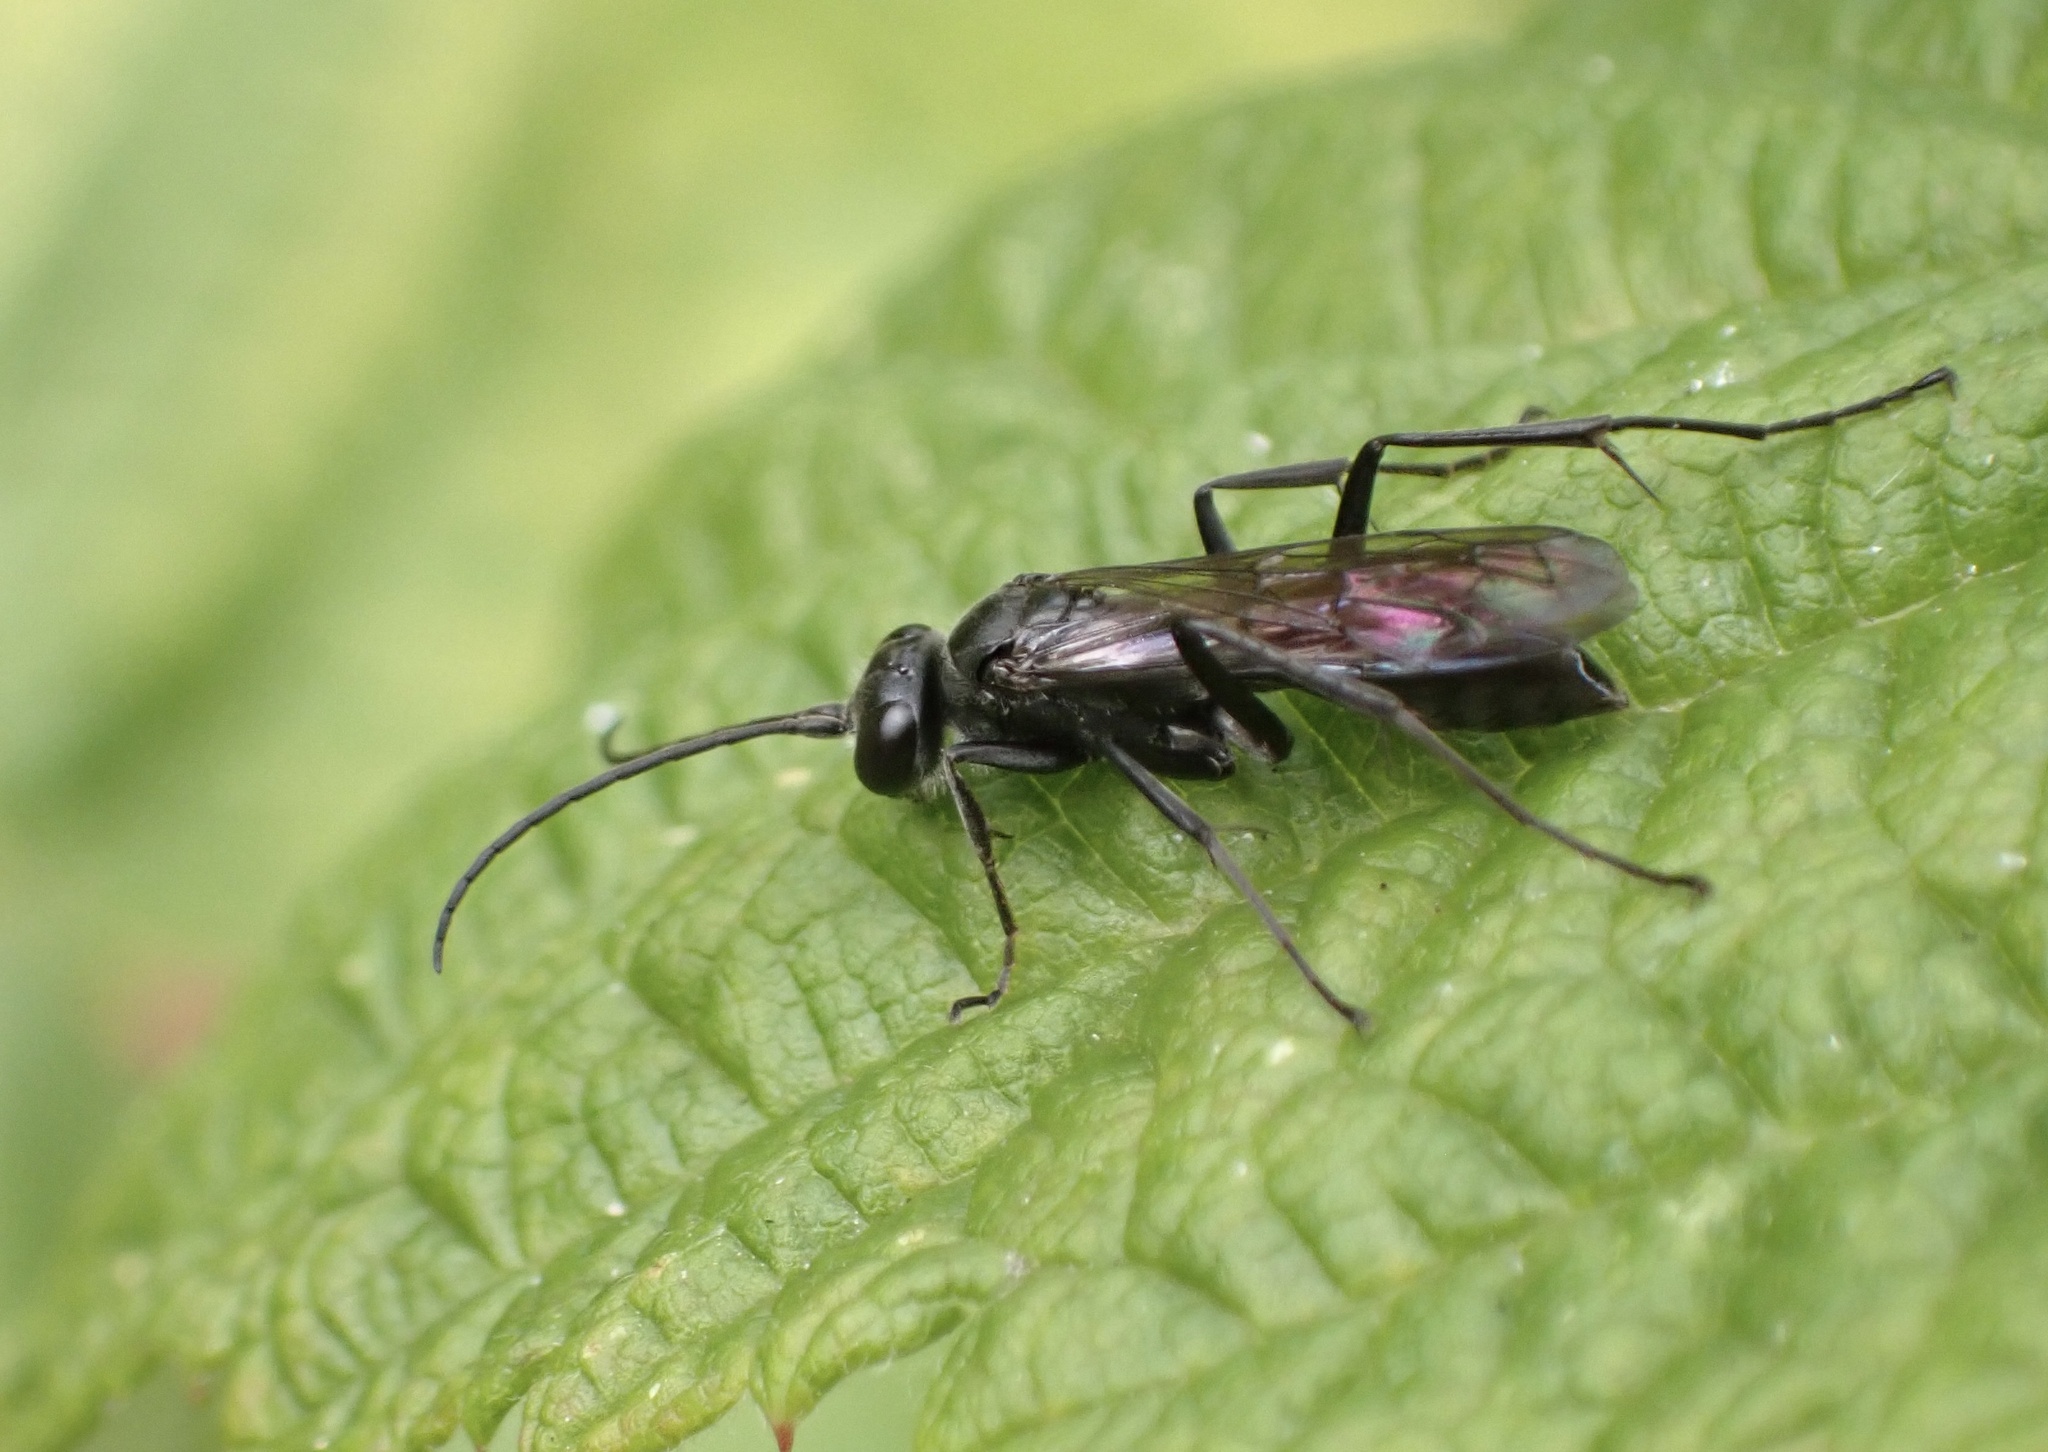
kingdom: Animalia
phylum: Arthropoda
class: Insecta
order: Hymenoptera
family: Pompilidae
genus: Auplopus
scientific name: Auplopus carbonarius
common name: Spider wasp
